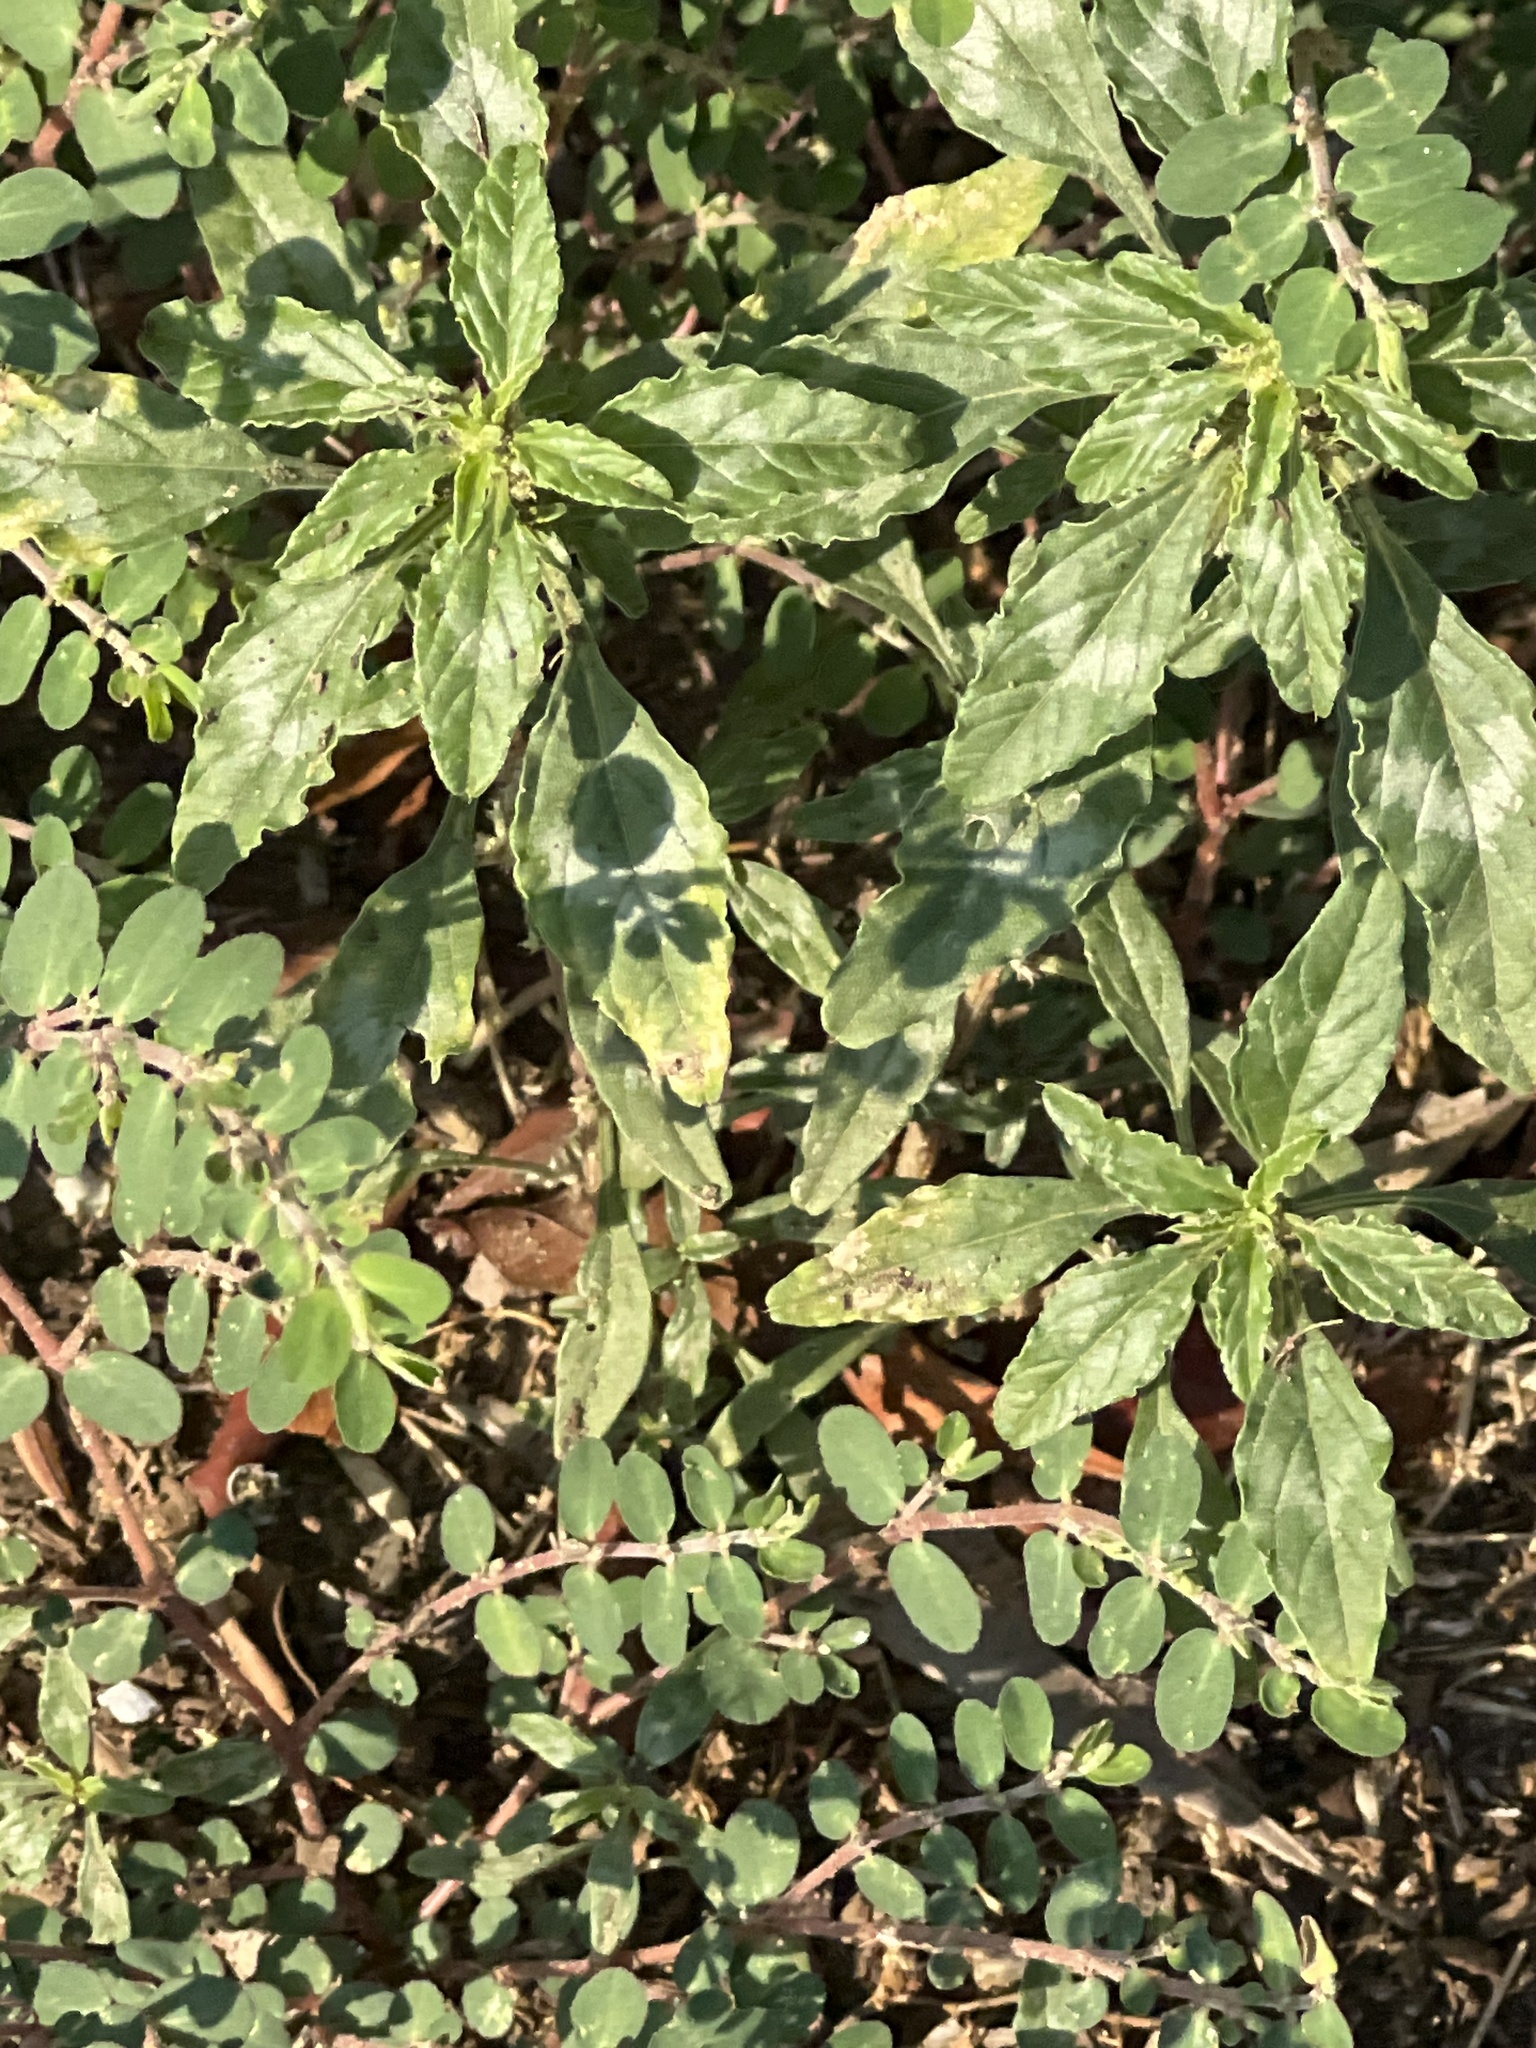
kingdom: Plantae
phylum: Tracheophyta
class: Magnoliopsida
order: Caryophyllales
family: Amaranthaceae
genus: Amaranthus
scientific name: Amaranthus polygonoides
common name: Tropical amaranth
